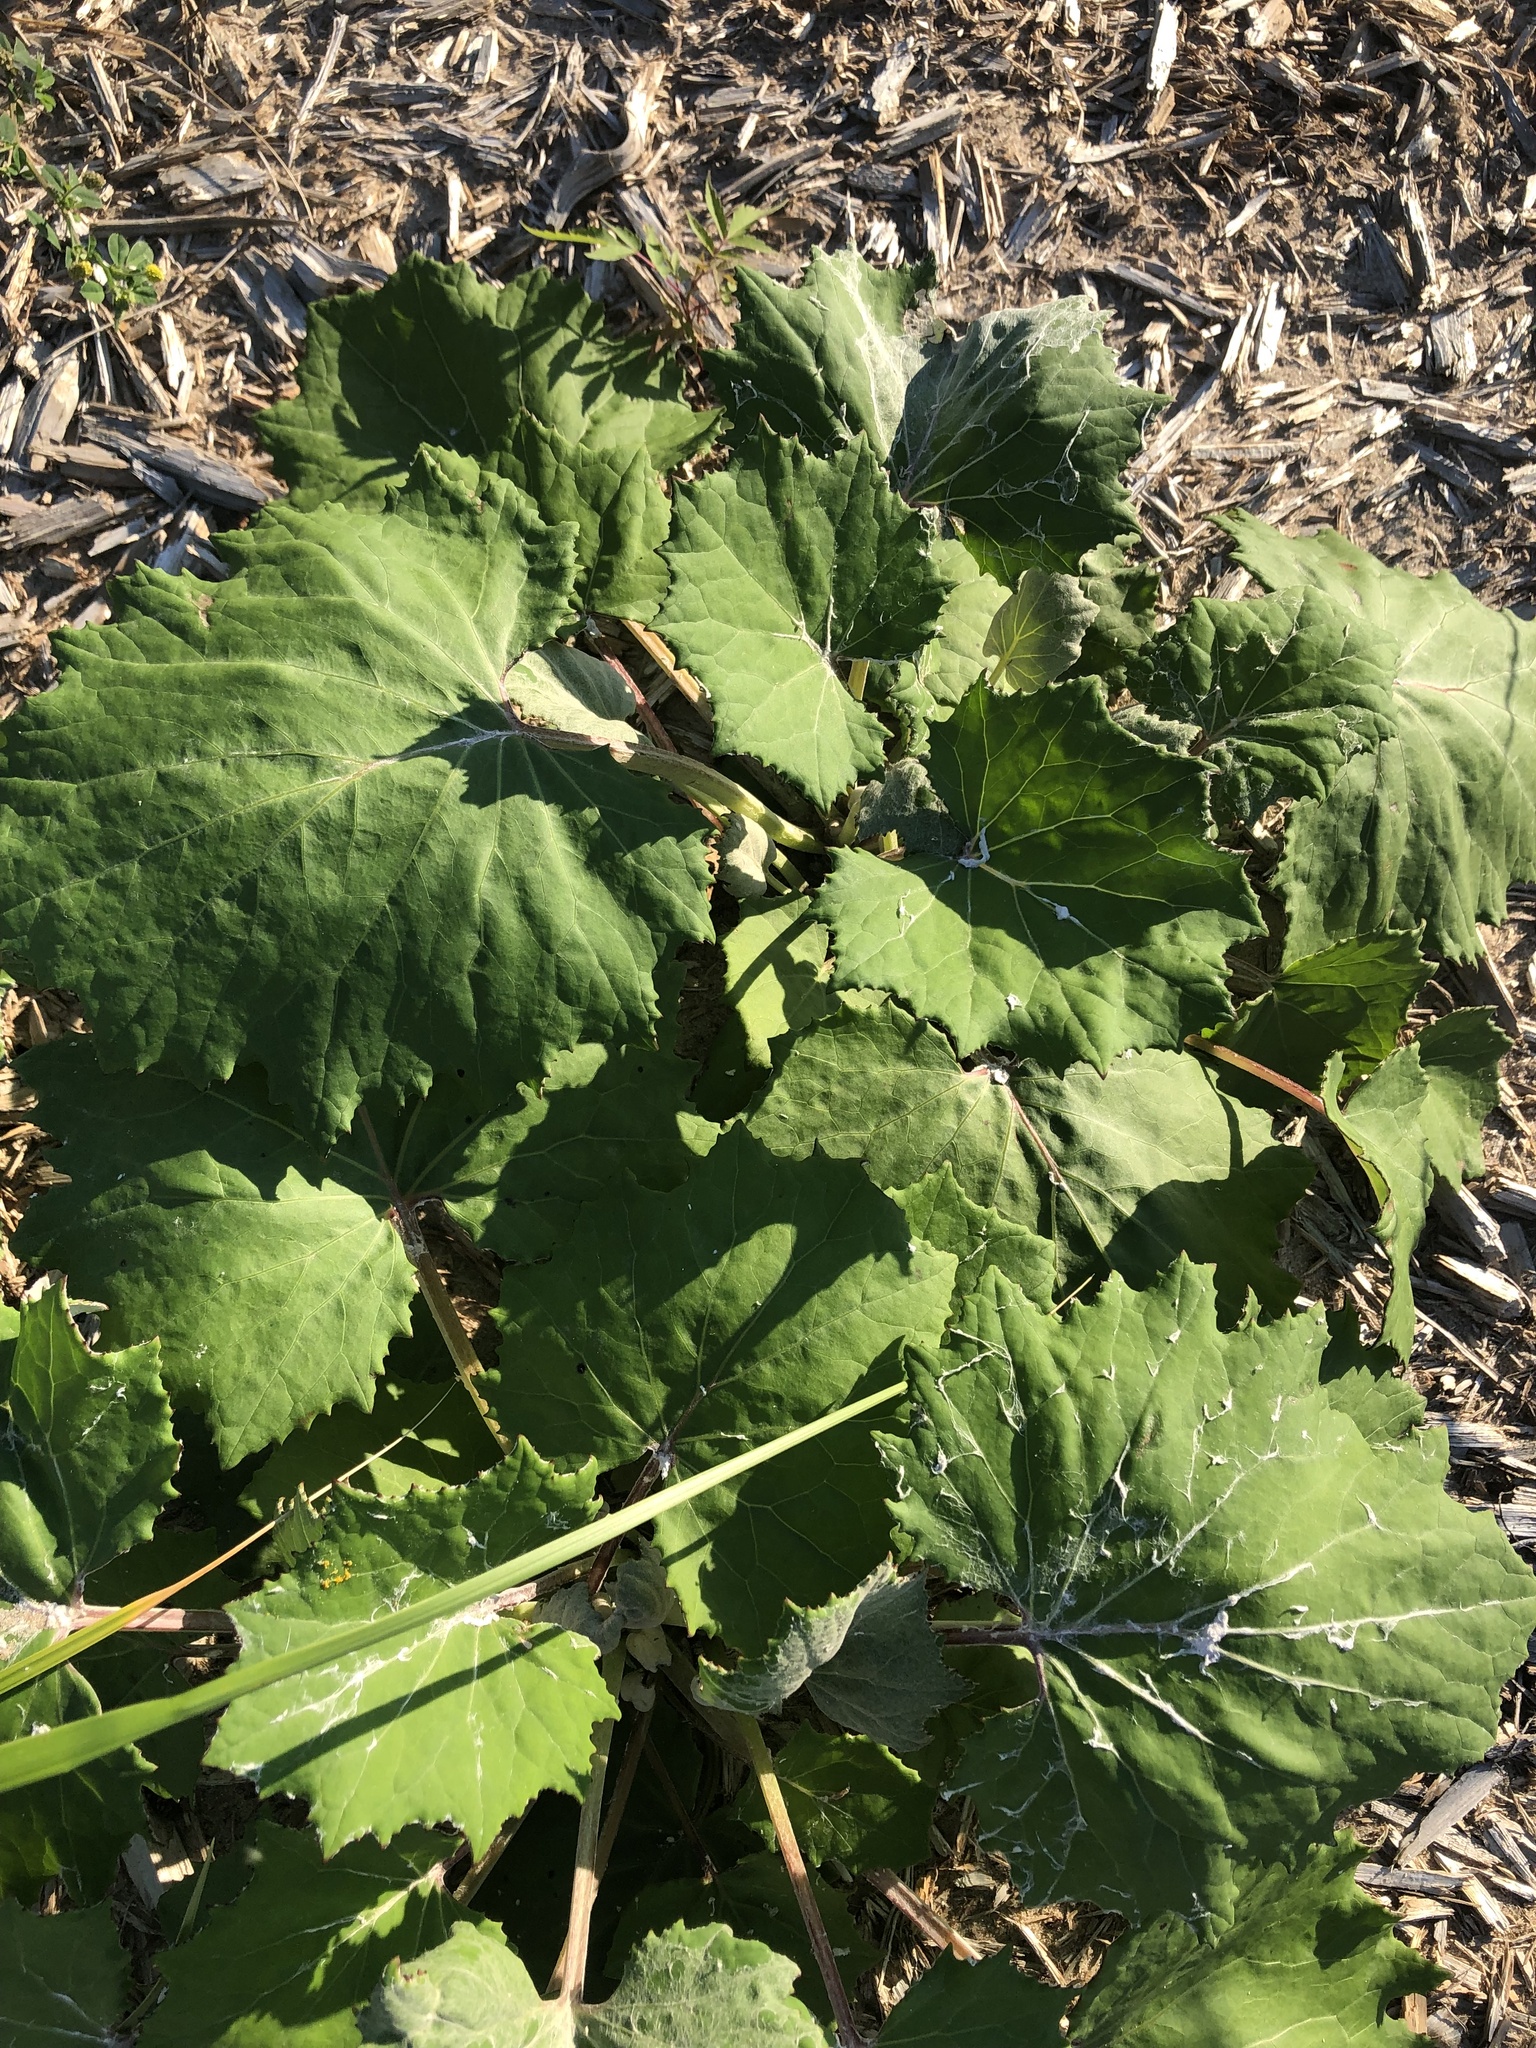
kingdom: Plantae
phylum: Tracheophyta
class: Magnoliopsida
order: Asterales
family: Asteraceae
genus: Tussilago
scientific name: Tussilago farfara
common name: Coltsfoot
